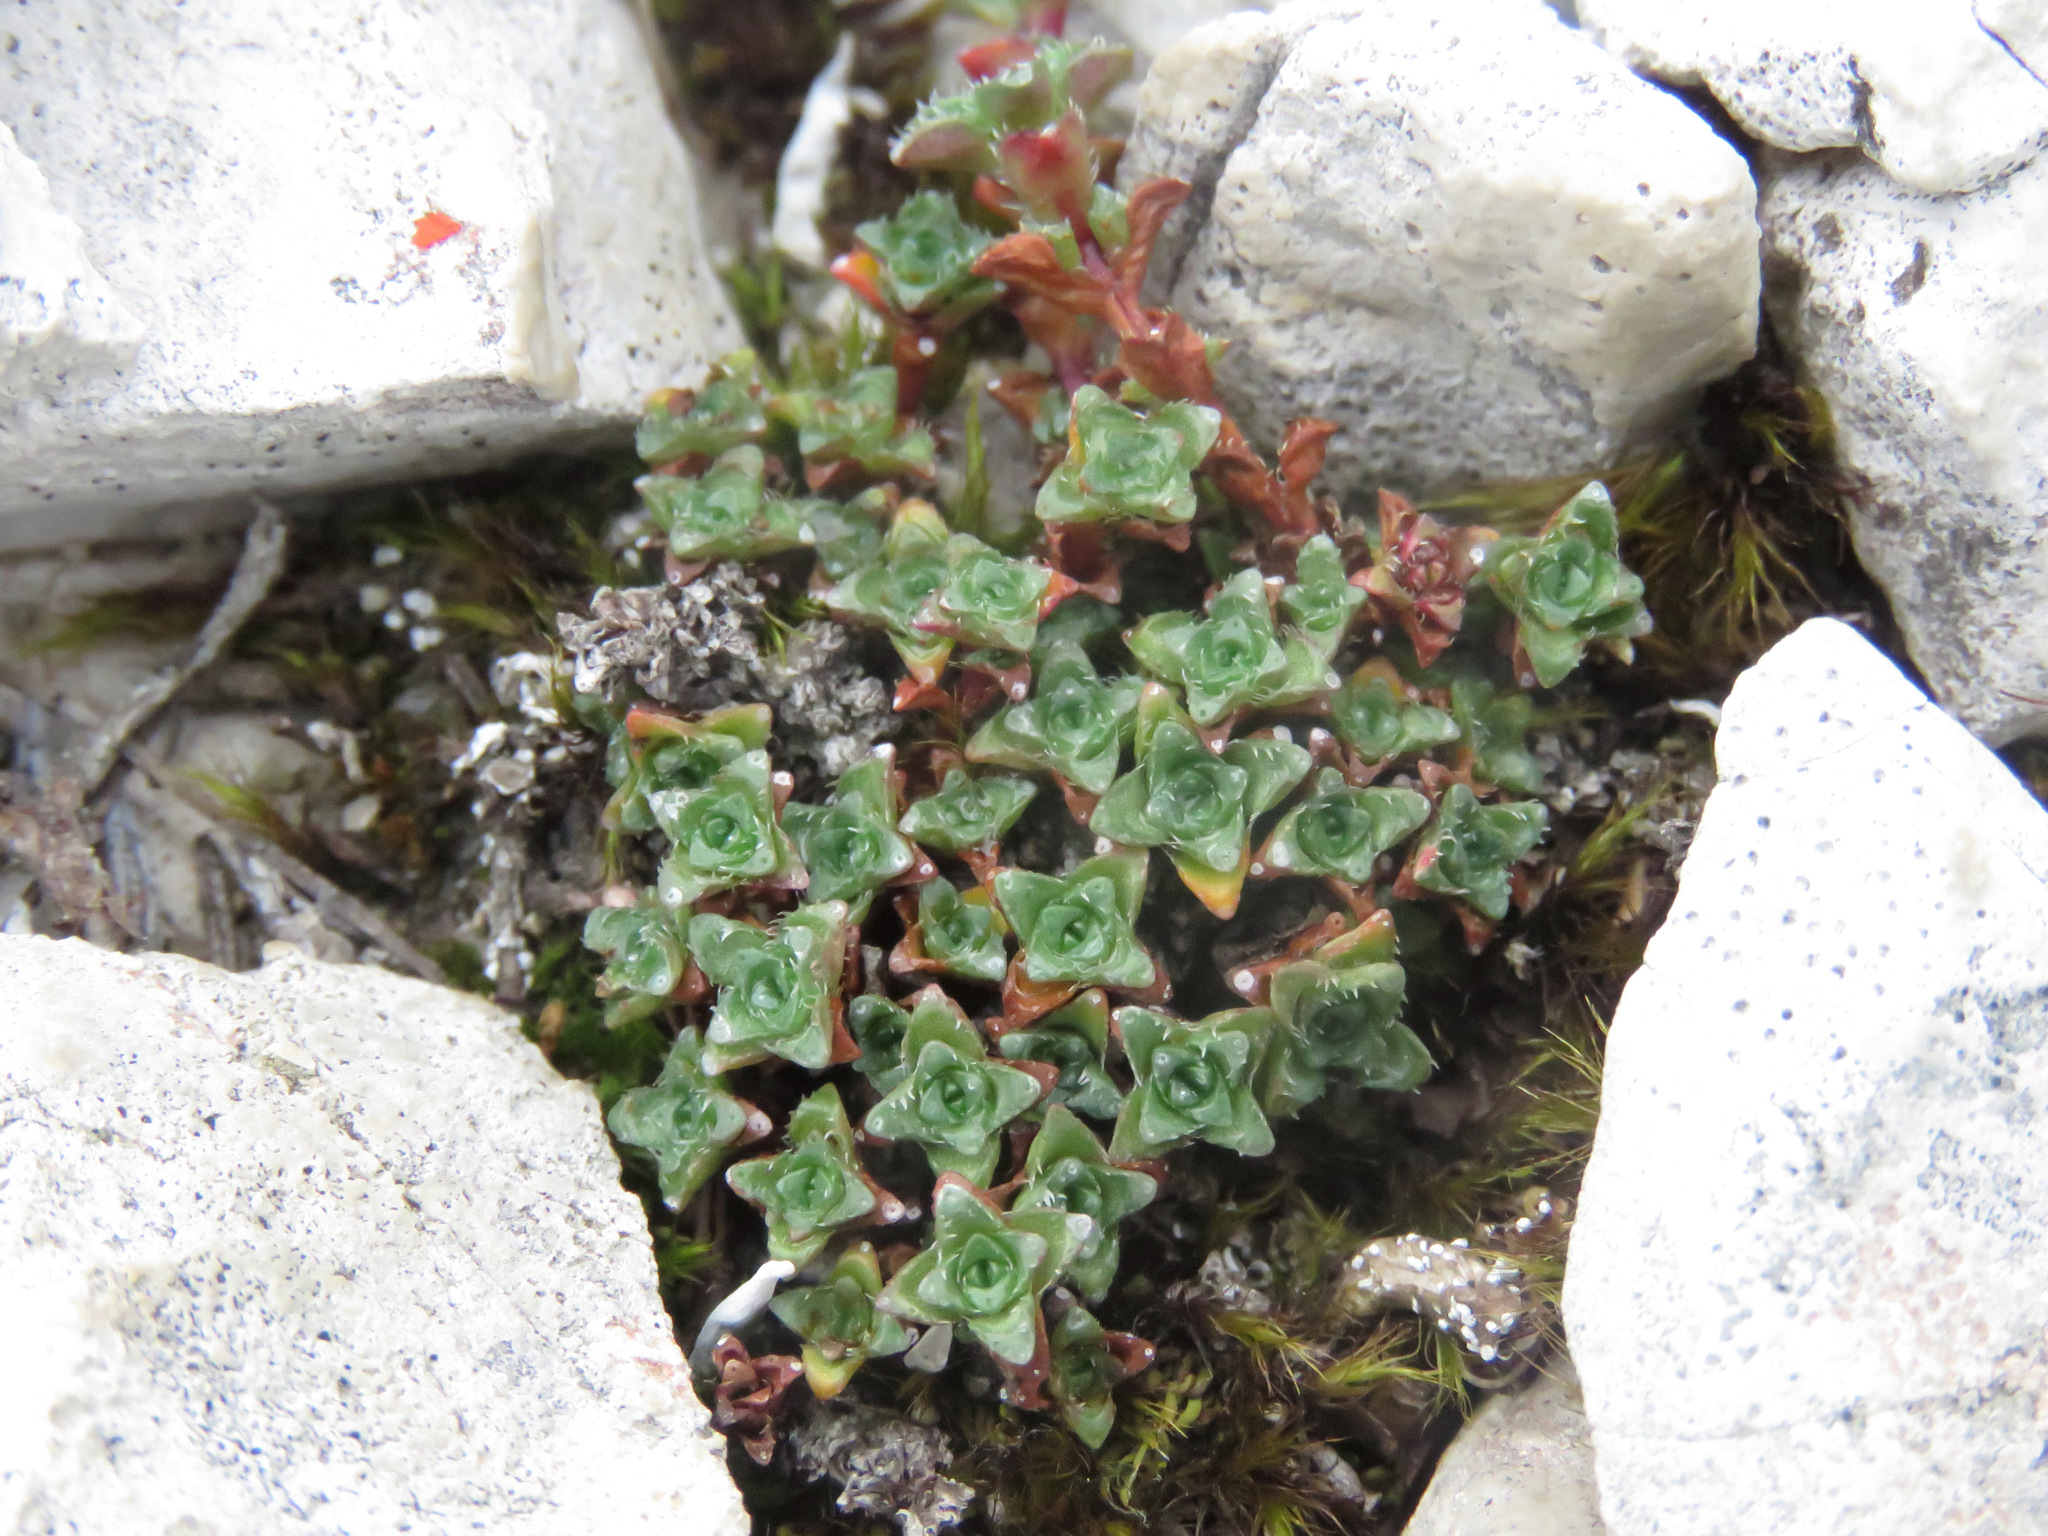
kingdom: Plantae
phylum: Tracheophyta
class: Magnoliopsida
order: Saxifragales
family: Saxifragaceae
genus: Saxifraga
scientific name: Saxifraga oppositifolia
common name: Purple saxifrage
